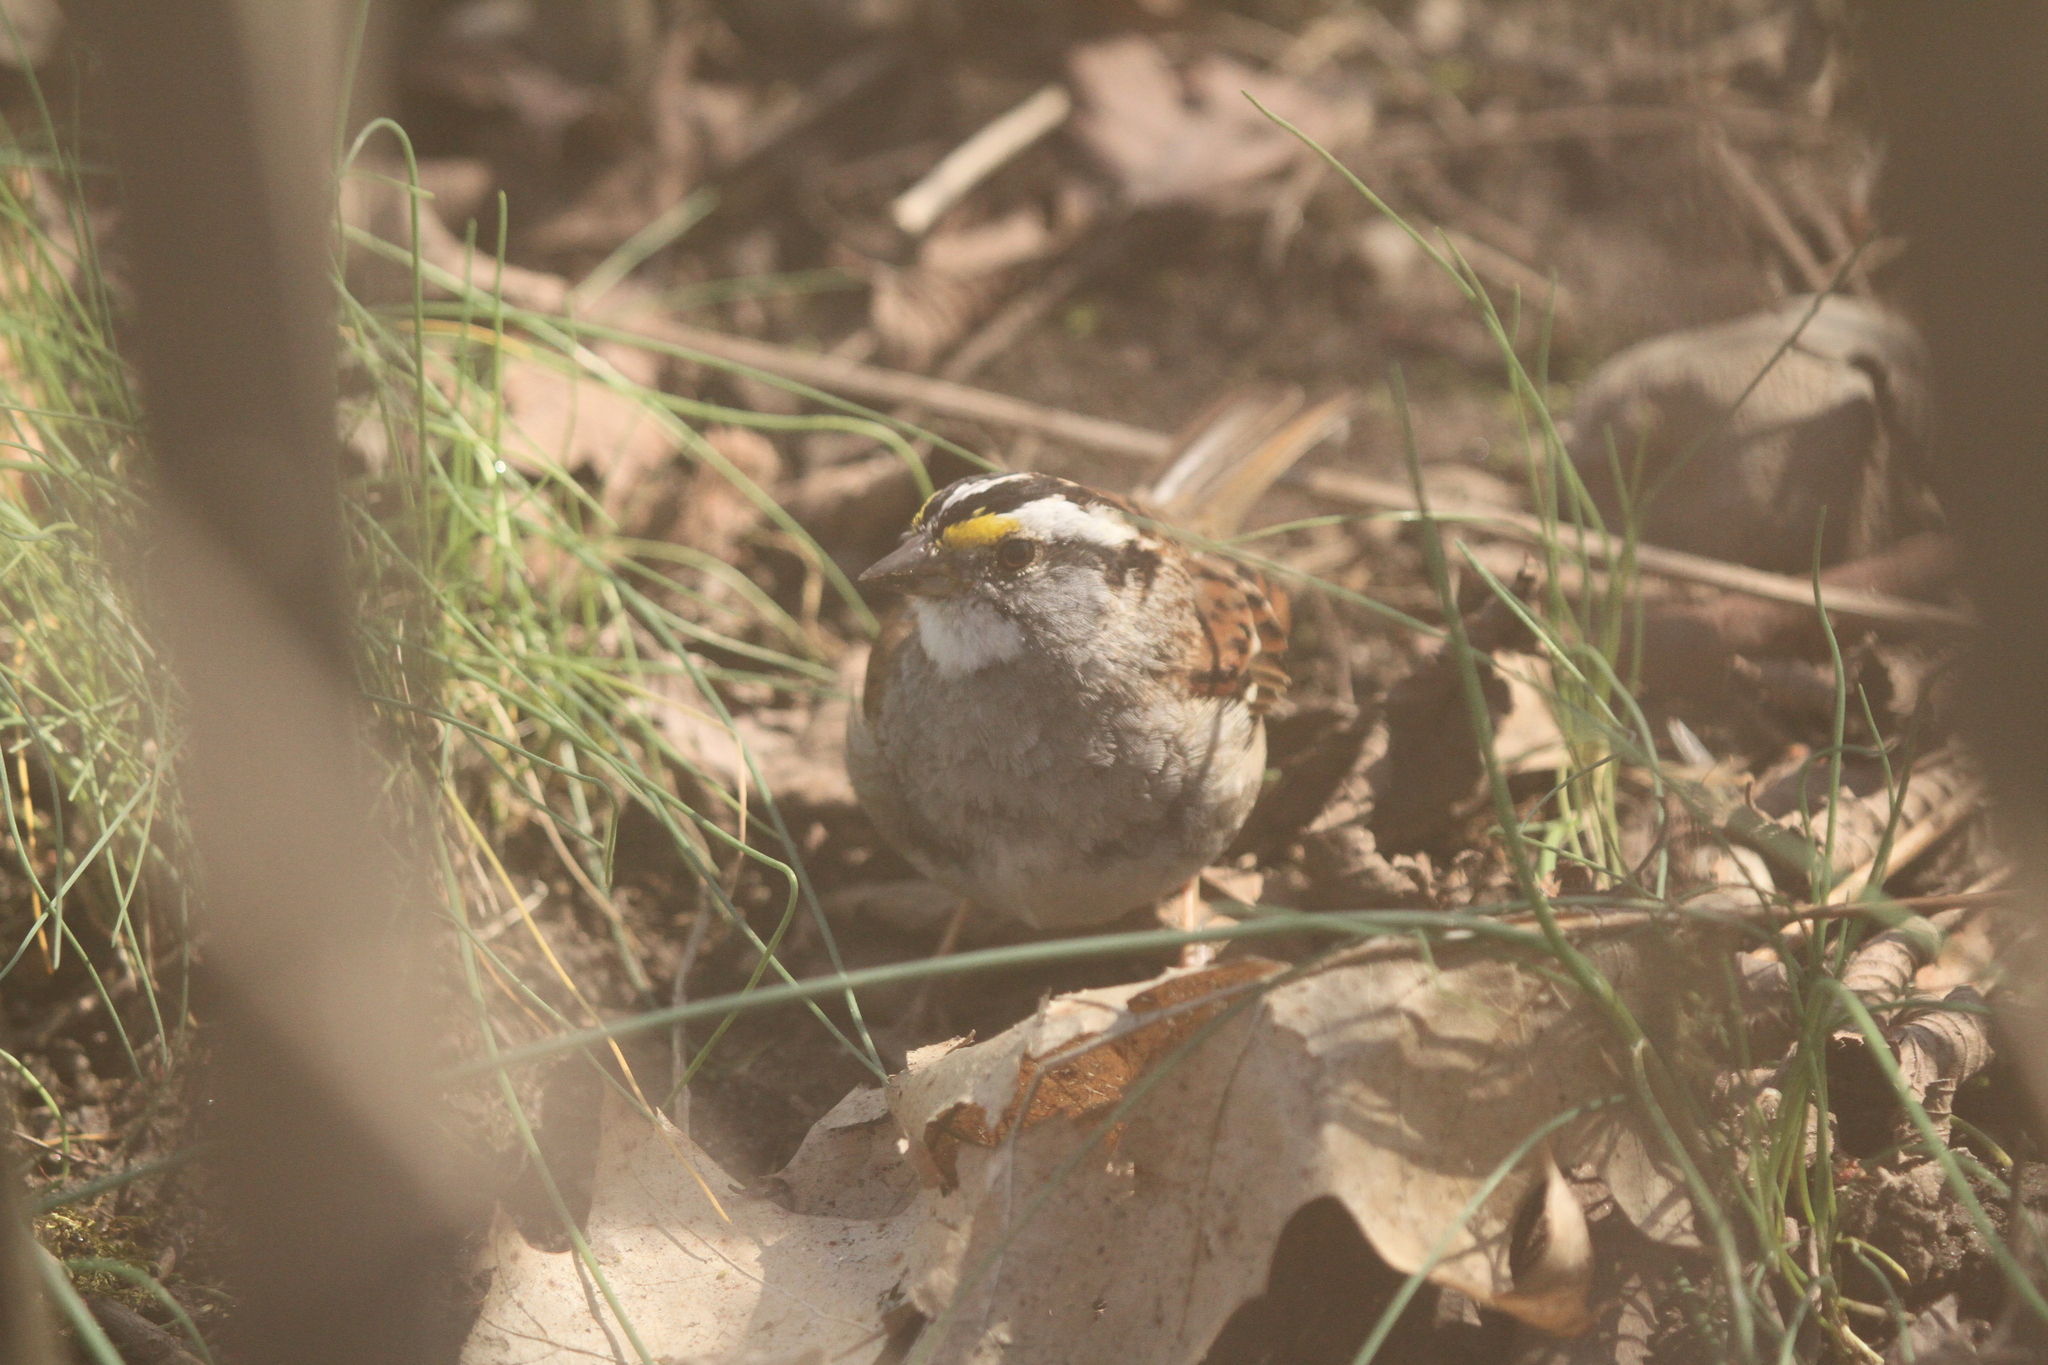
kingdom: Animalia
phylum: Chordata
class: Aves
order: Passeriformes
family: Passerellidae
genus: Zonotrichia
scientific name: Zonotrichia albicollis
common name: White-throated sparrow
